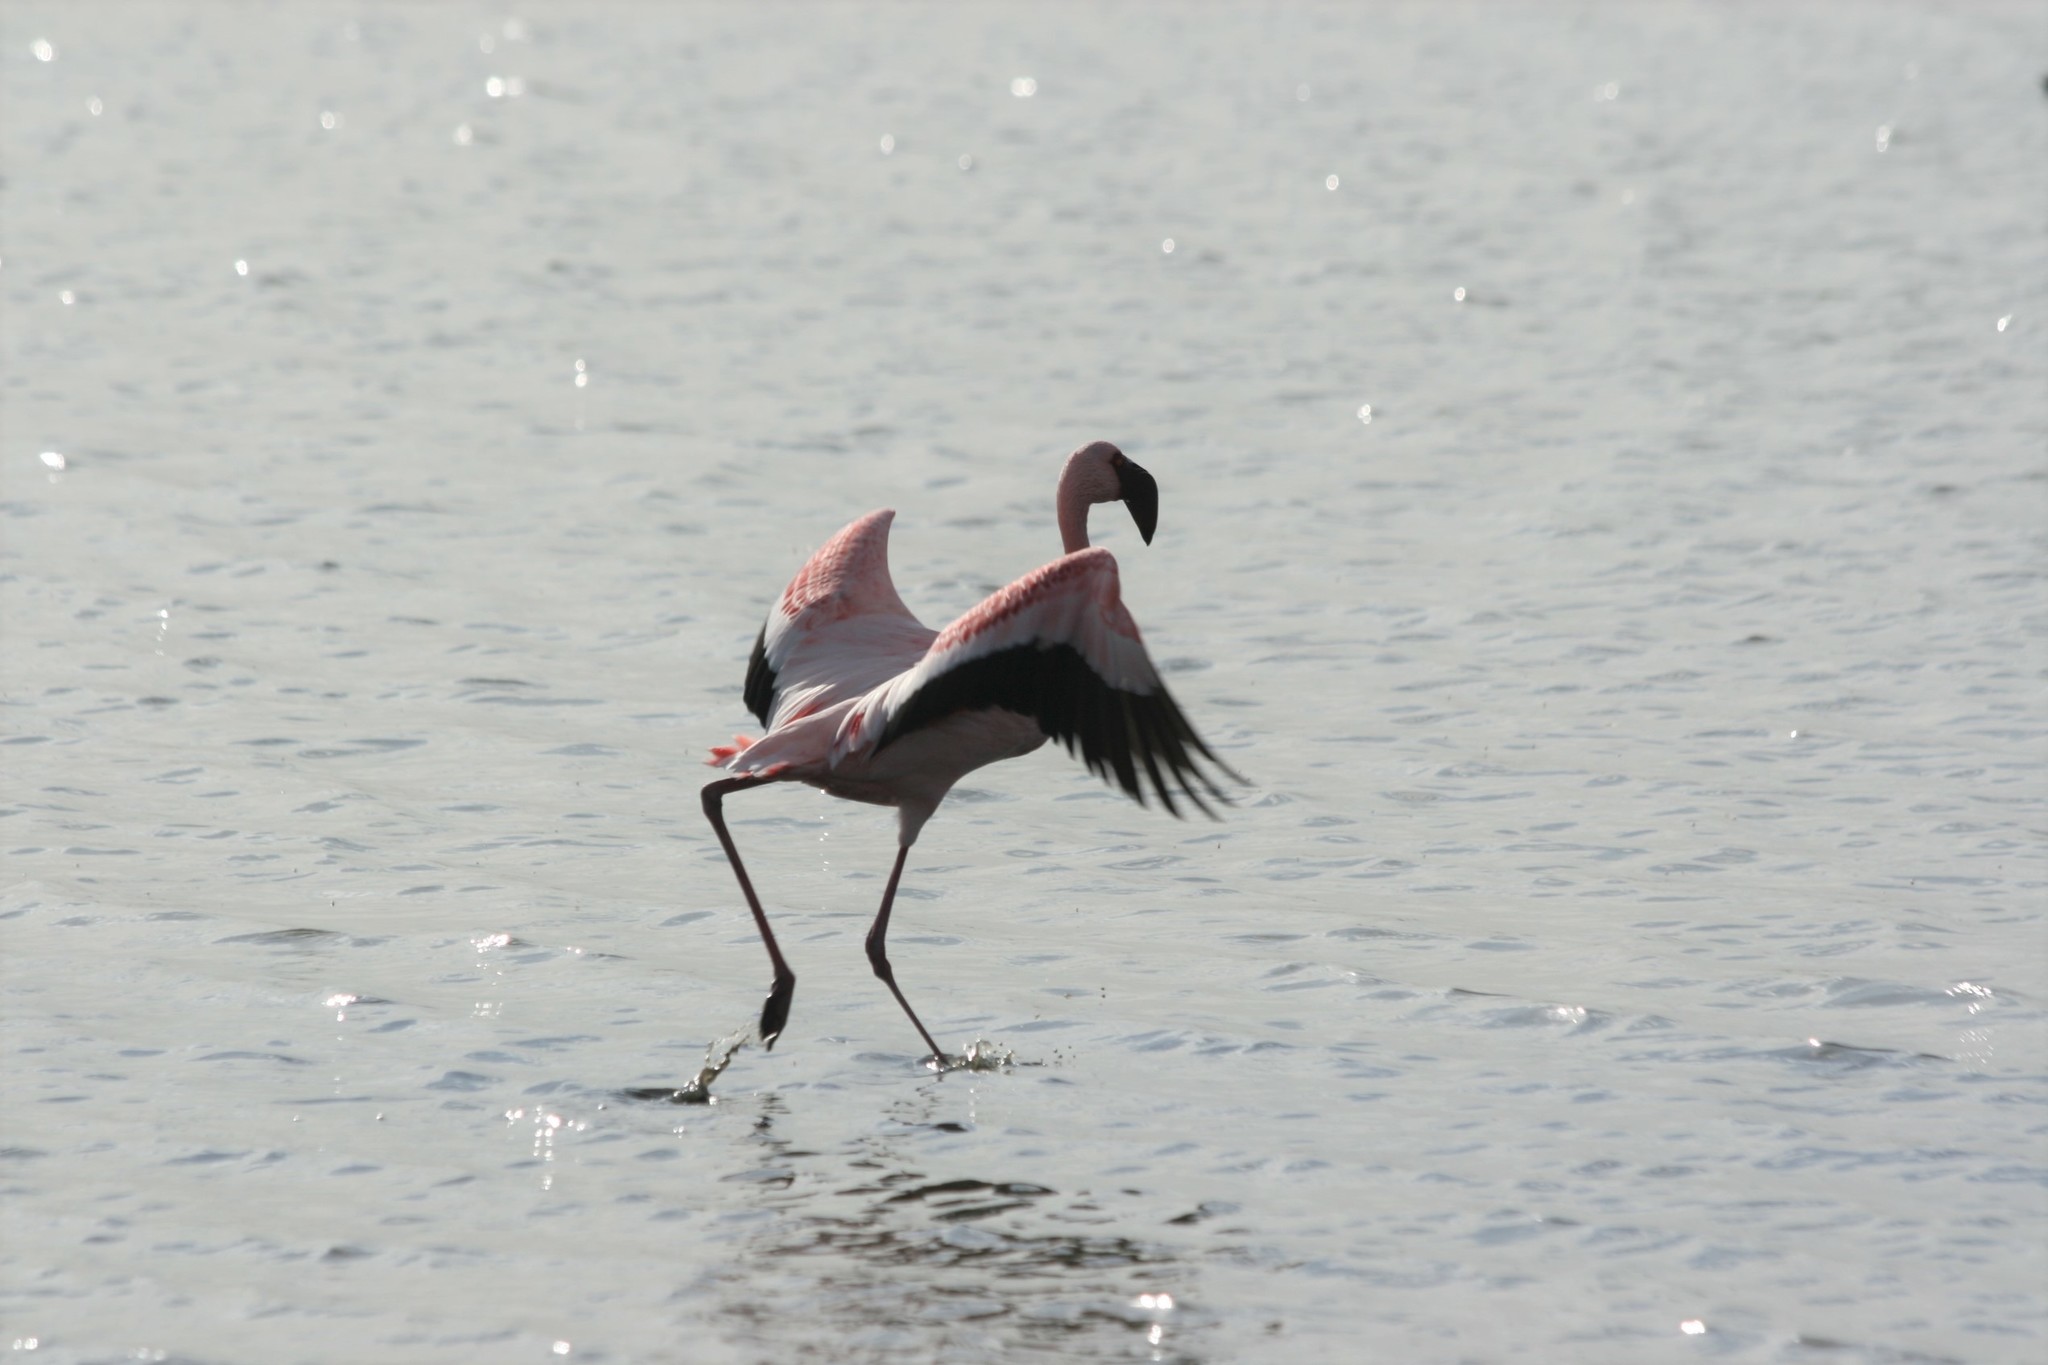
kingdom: Animalia
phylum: Chordata
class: Aves
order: Phoenicopteriformes
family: Phoenicopteridae
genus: Phoeniconaias
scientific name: Phoeniconaias minor
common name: Lesser flamingo
